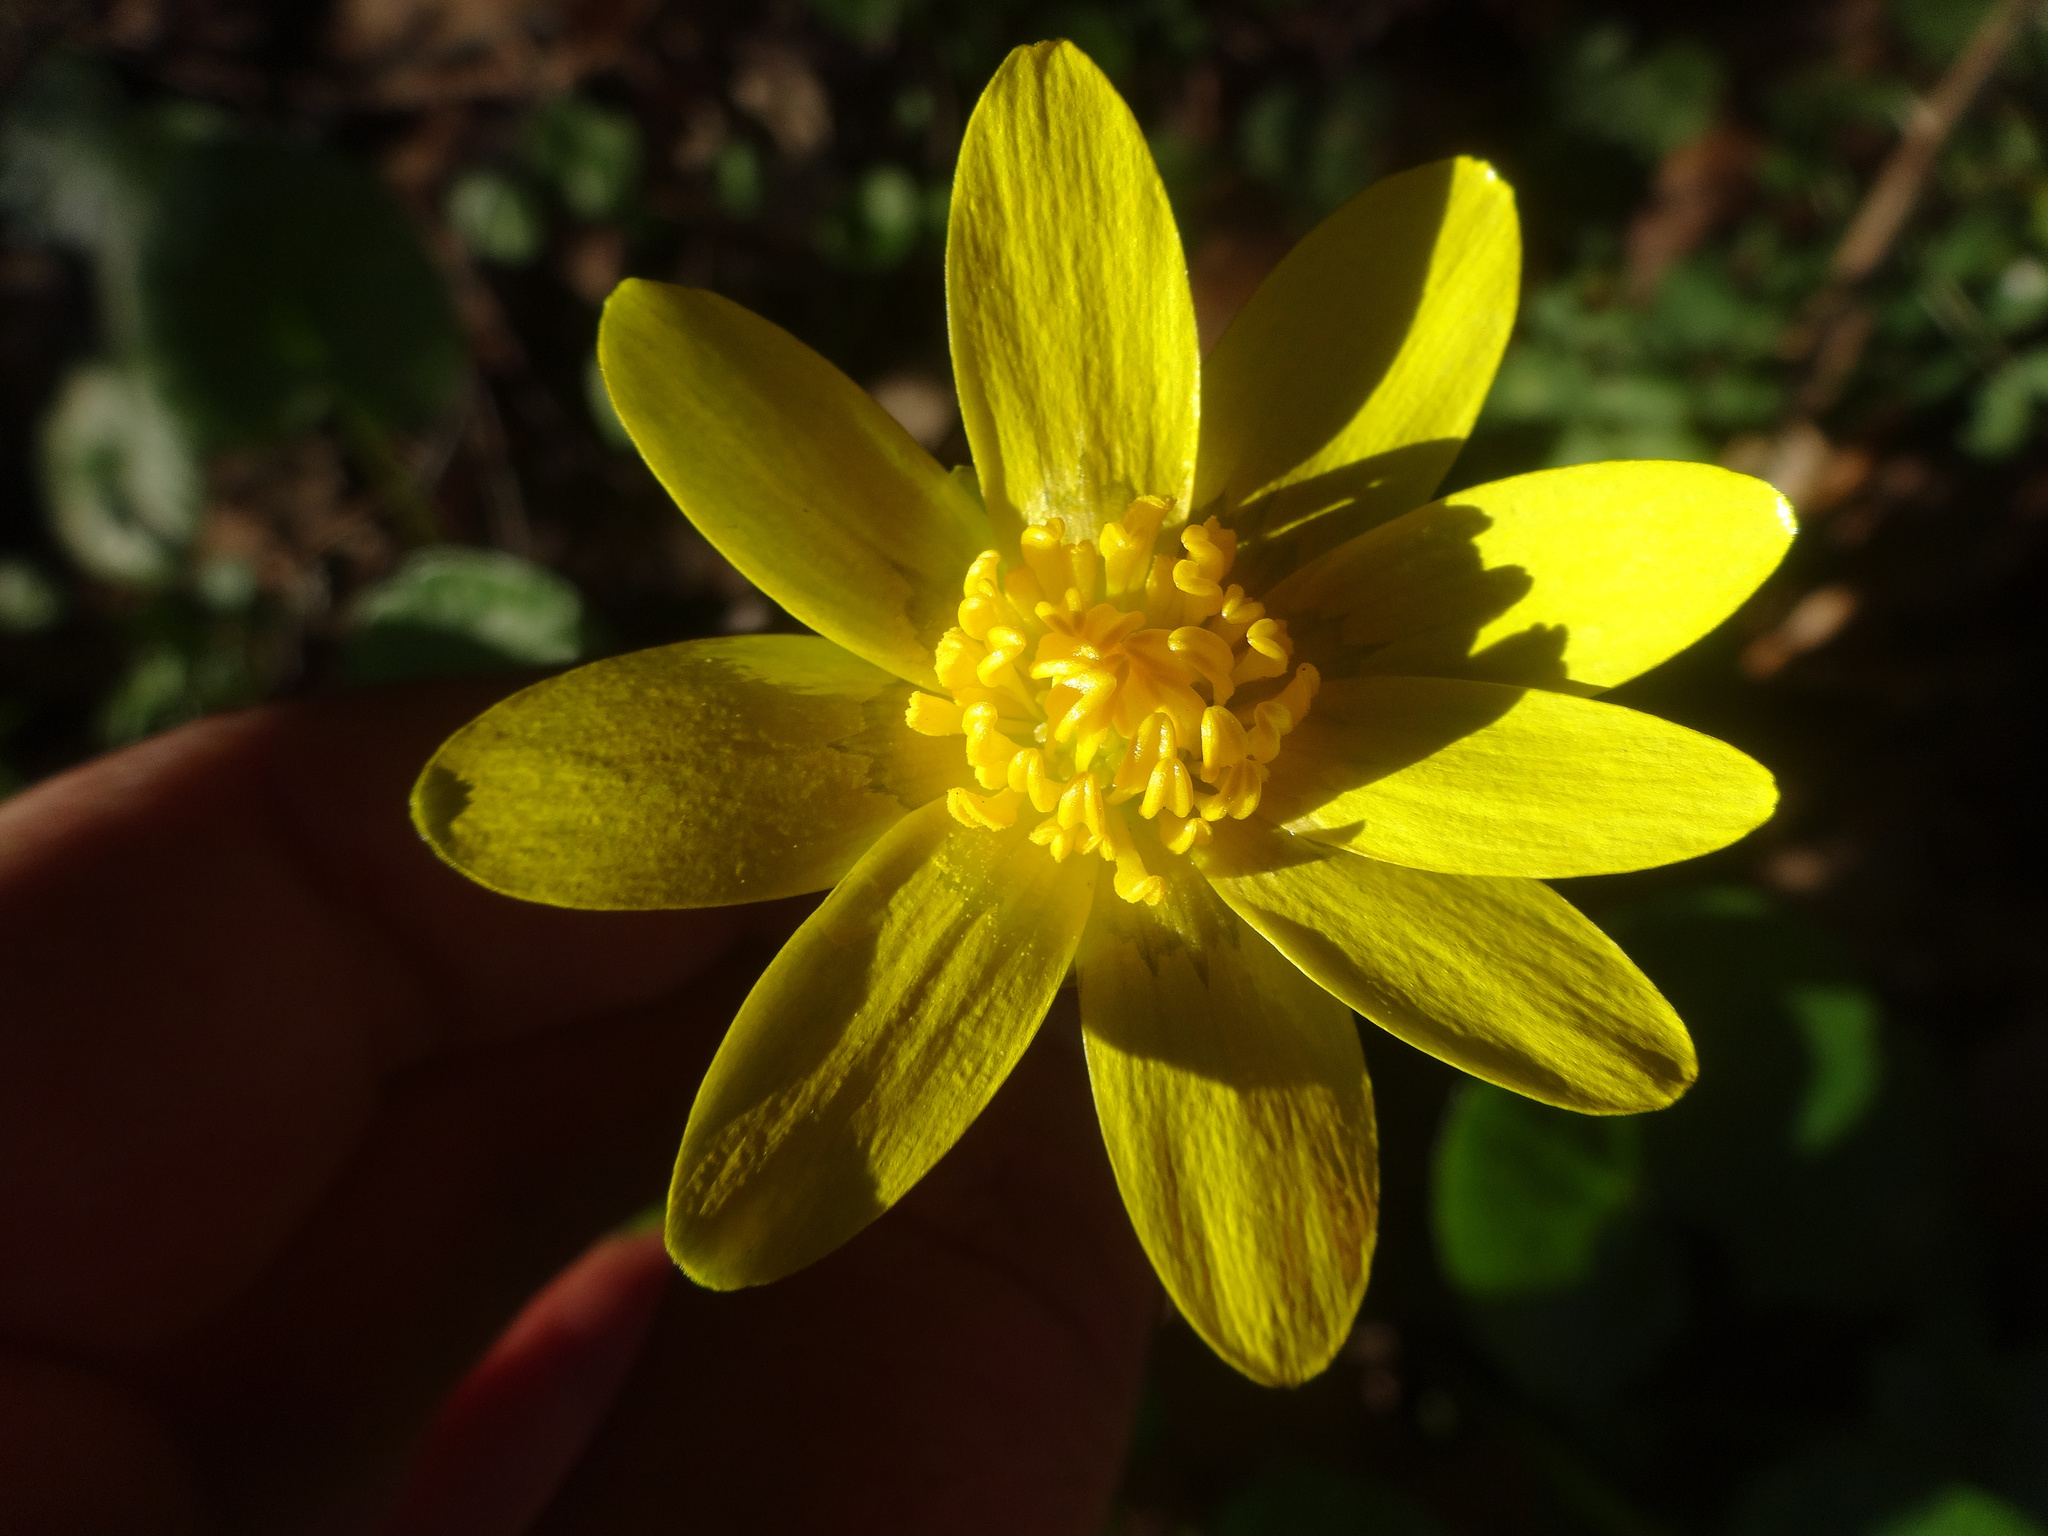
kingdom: Plantae
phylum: Tracheophyta
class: Magnoliopsida
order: Ranunculales
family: Ranunculaceae
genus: Ficaria
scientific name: Ficaria verna
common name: Lesser celandine
